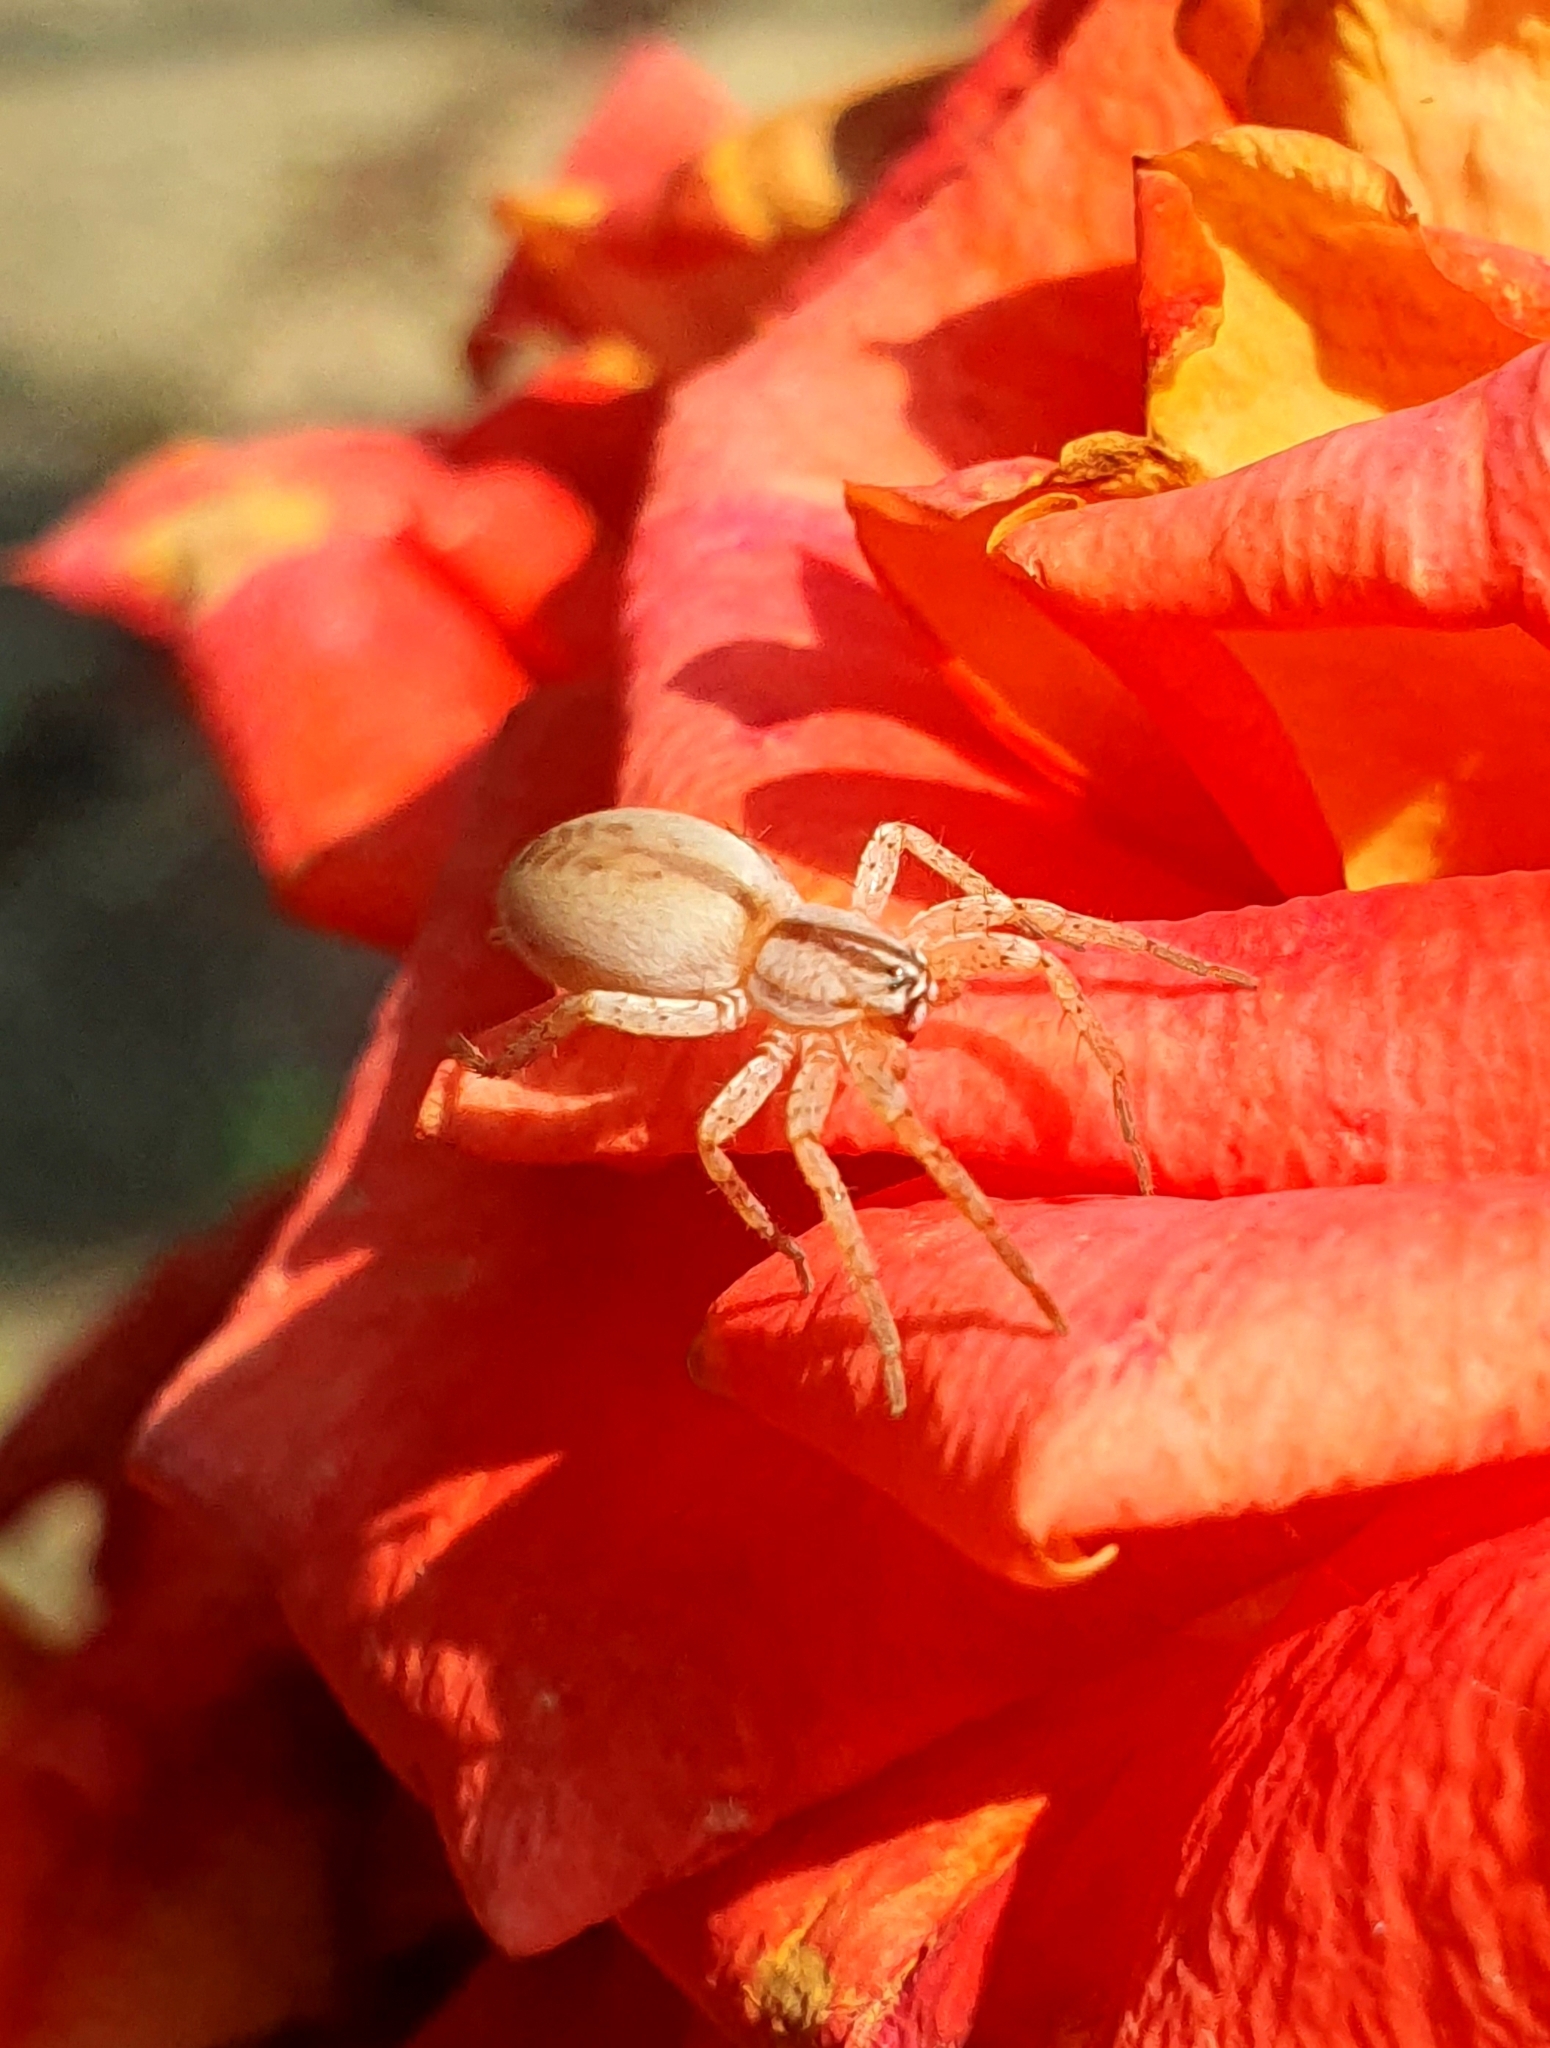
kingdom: Animalia
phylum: Arthropoda
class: Arachnida
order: Araneae
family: Anyphaenidae
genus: Arachosia
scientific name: Arachosia praesignis
